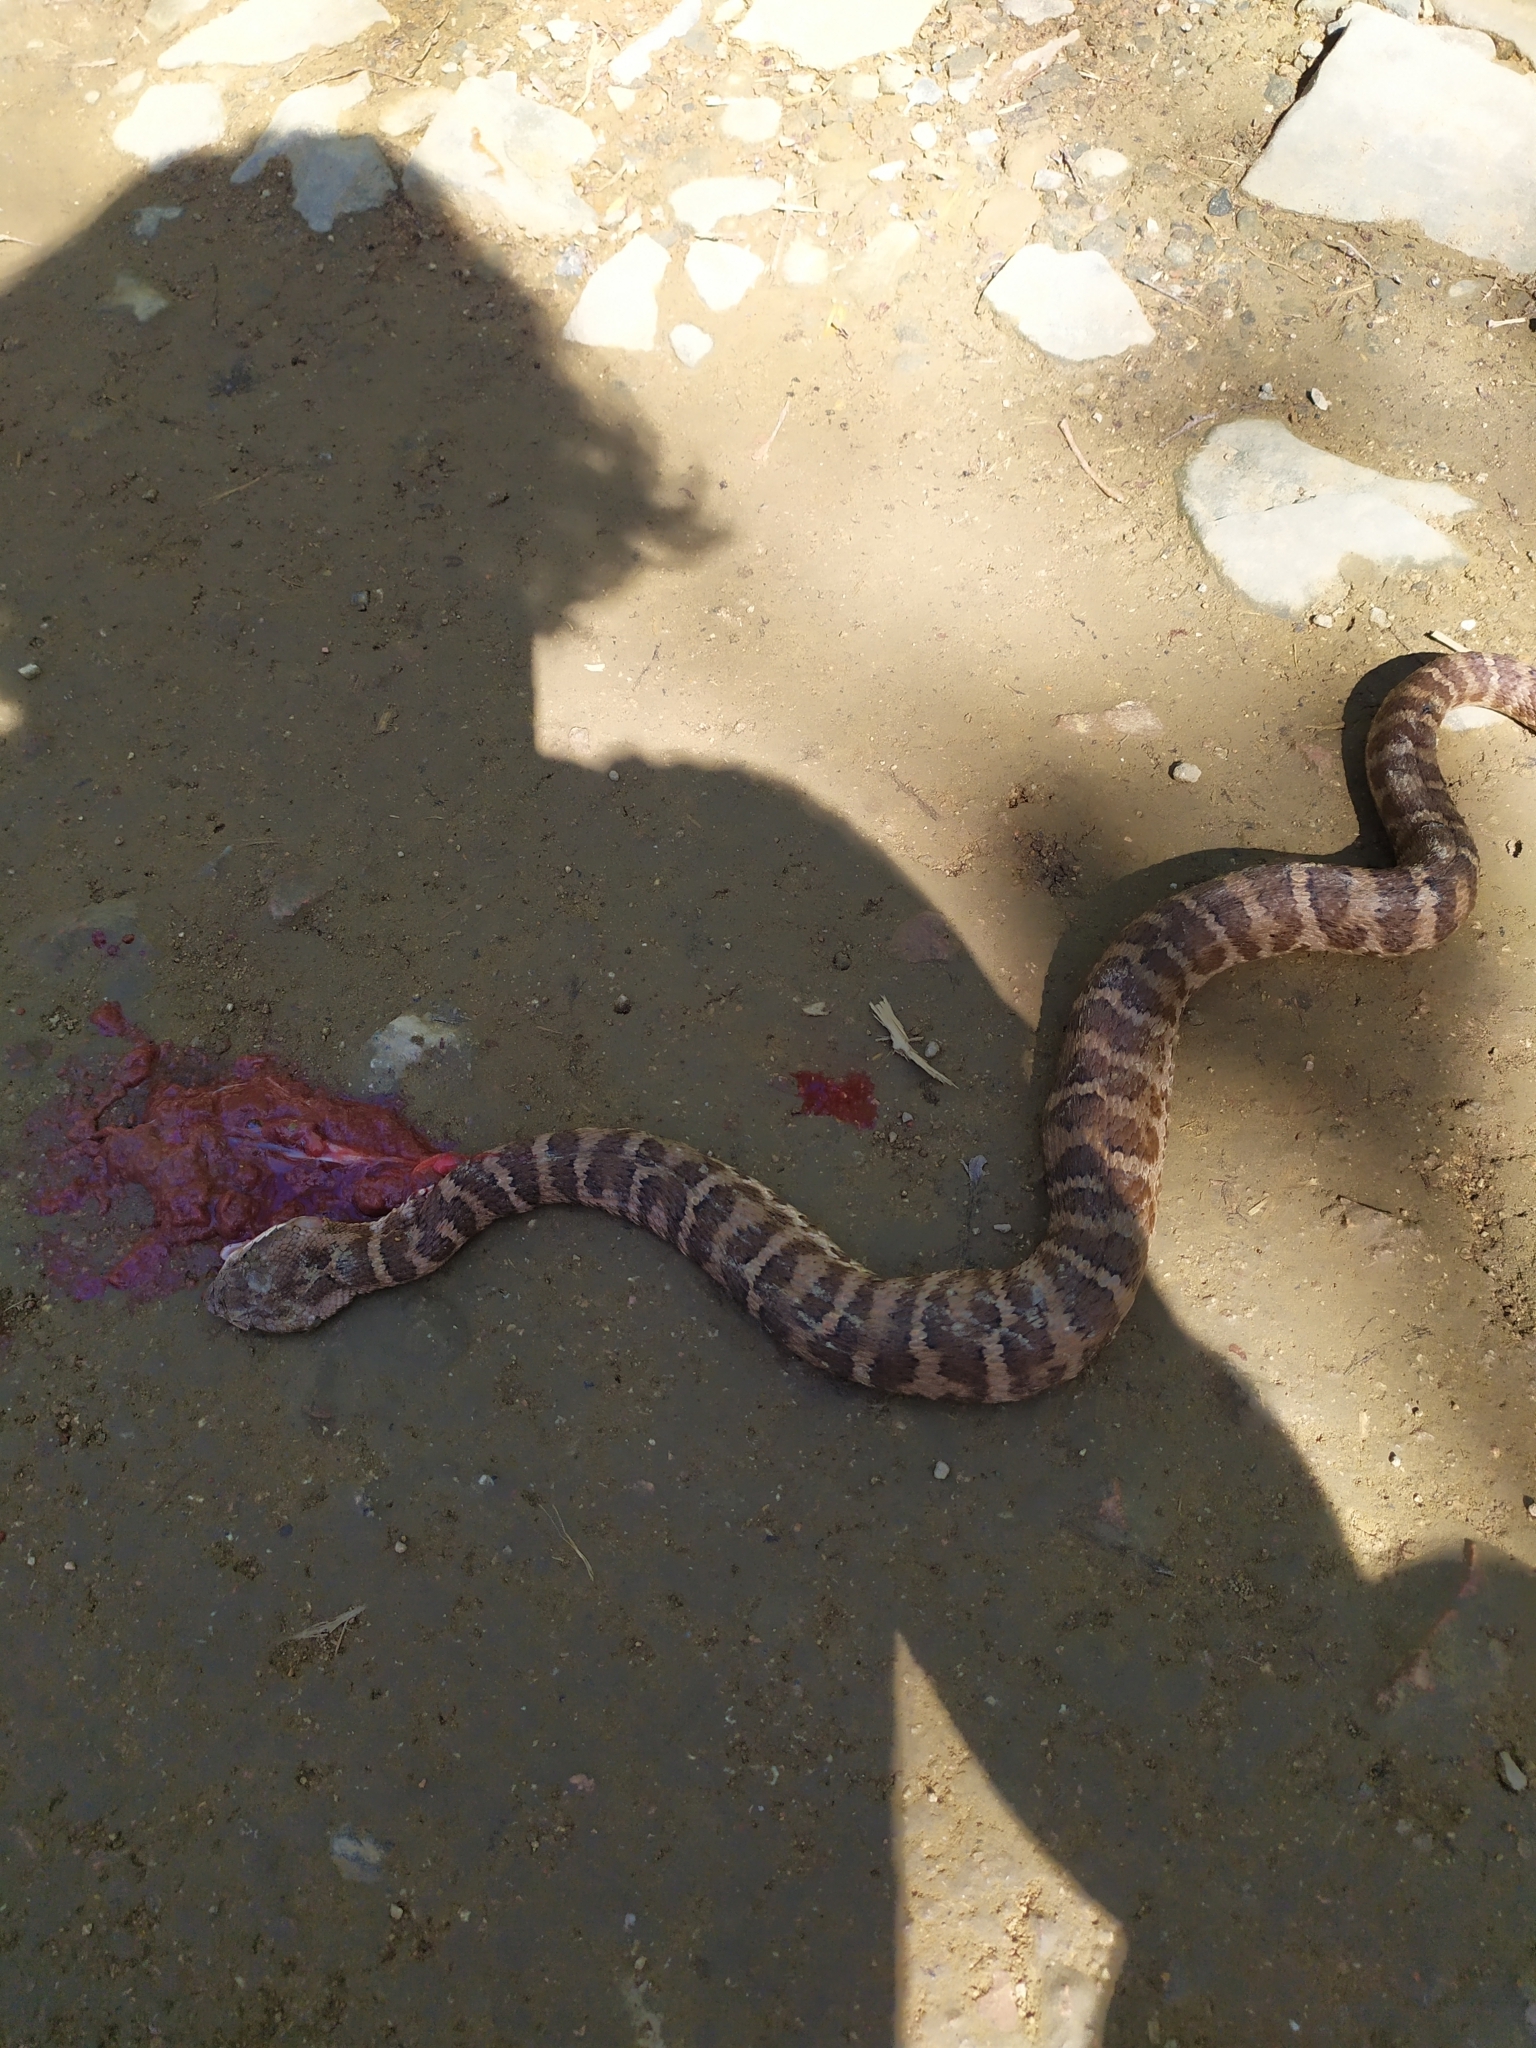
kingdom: Animalia
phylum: Chordata
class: Squamata
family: Viperidae
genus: Gloydius
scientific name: Gloydius intermedius
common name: Central asian pit viper
